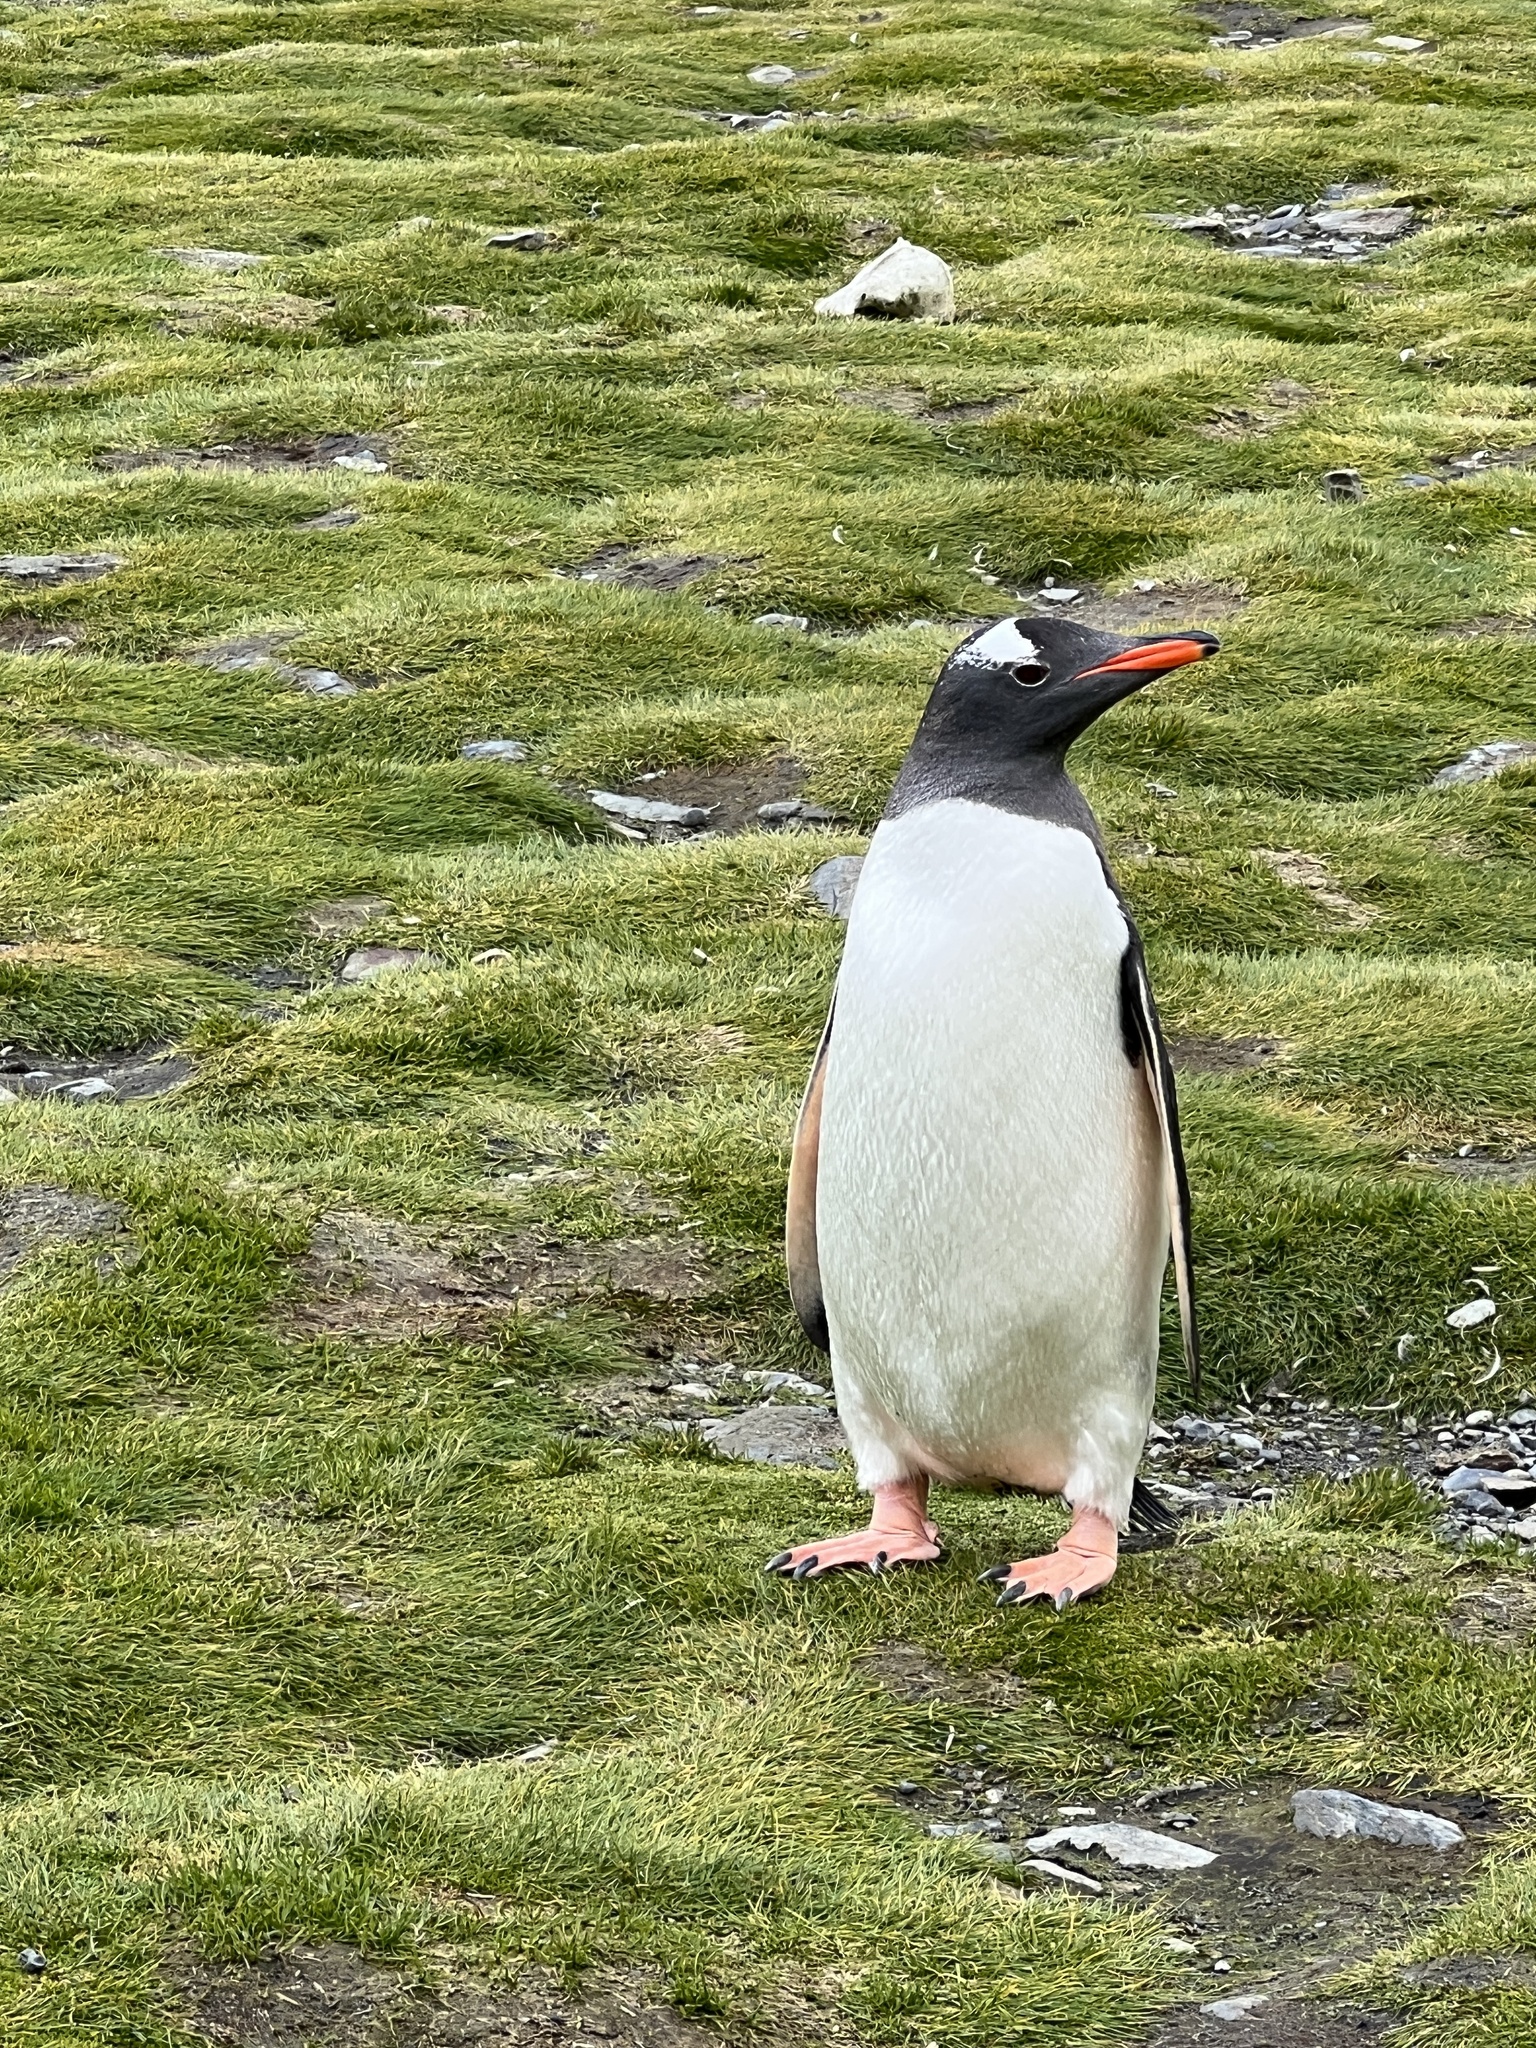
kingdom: Animalia
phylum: Chordata
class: Aves
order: Sphenisciformes
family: Spheniscidae
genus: Pygoscelis
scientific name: Pygoscelis papua
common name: Gentoo penguin
